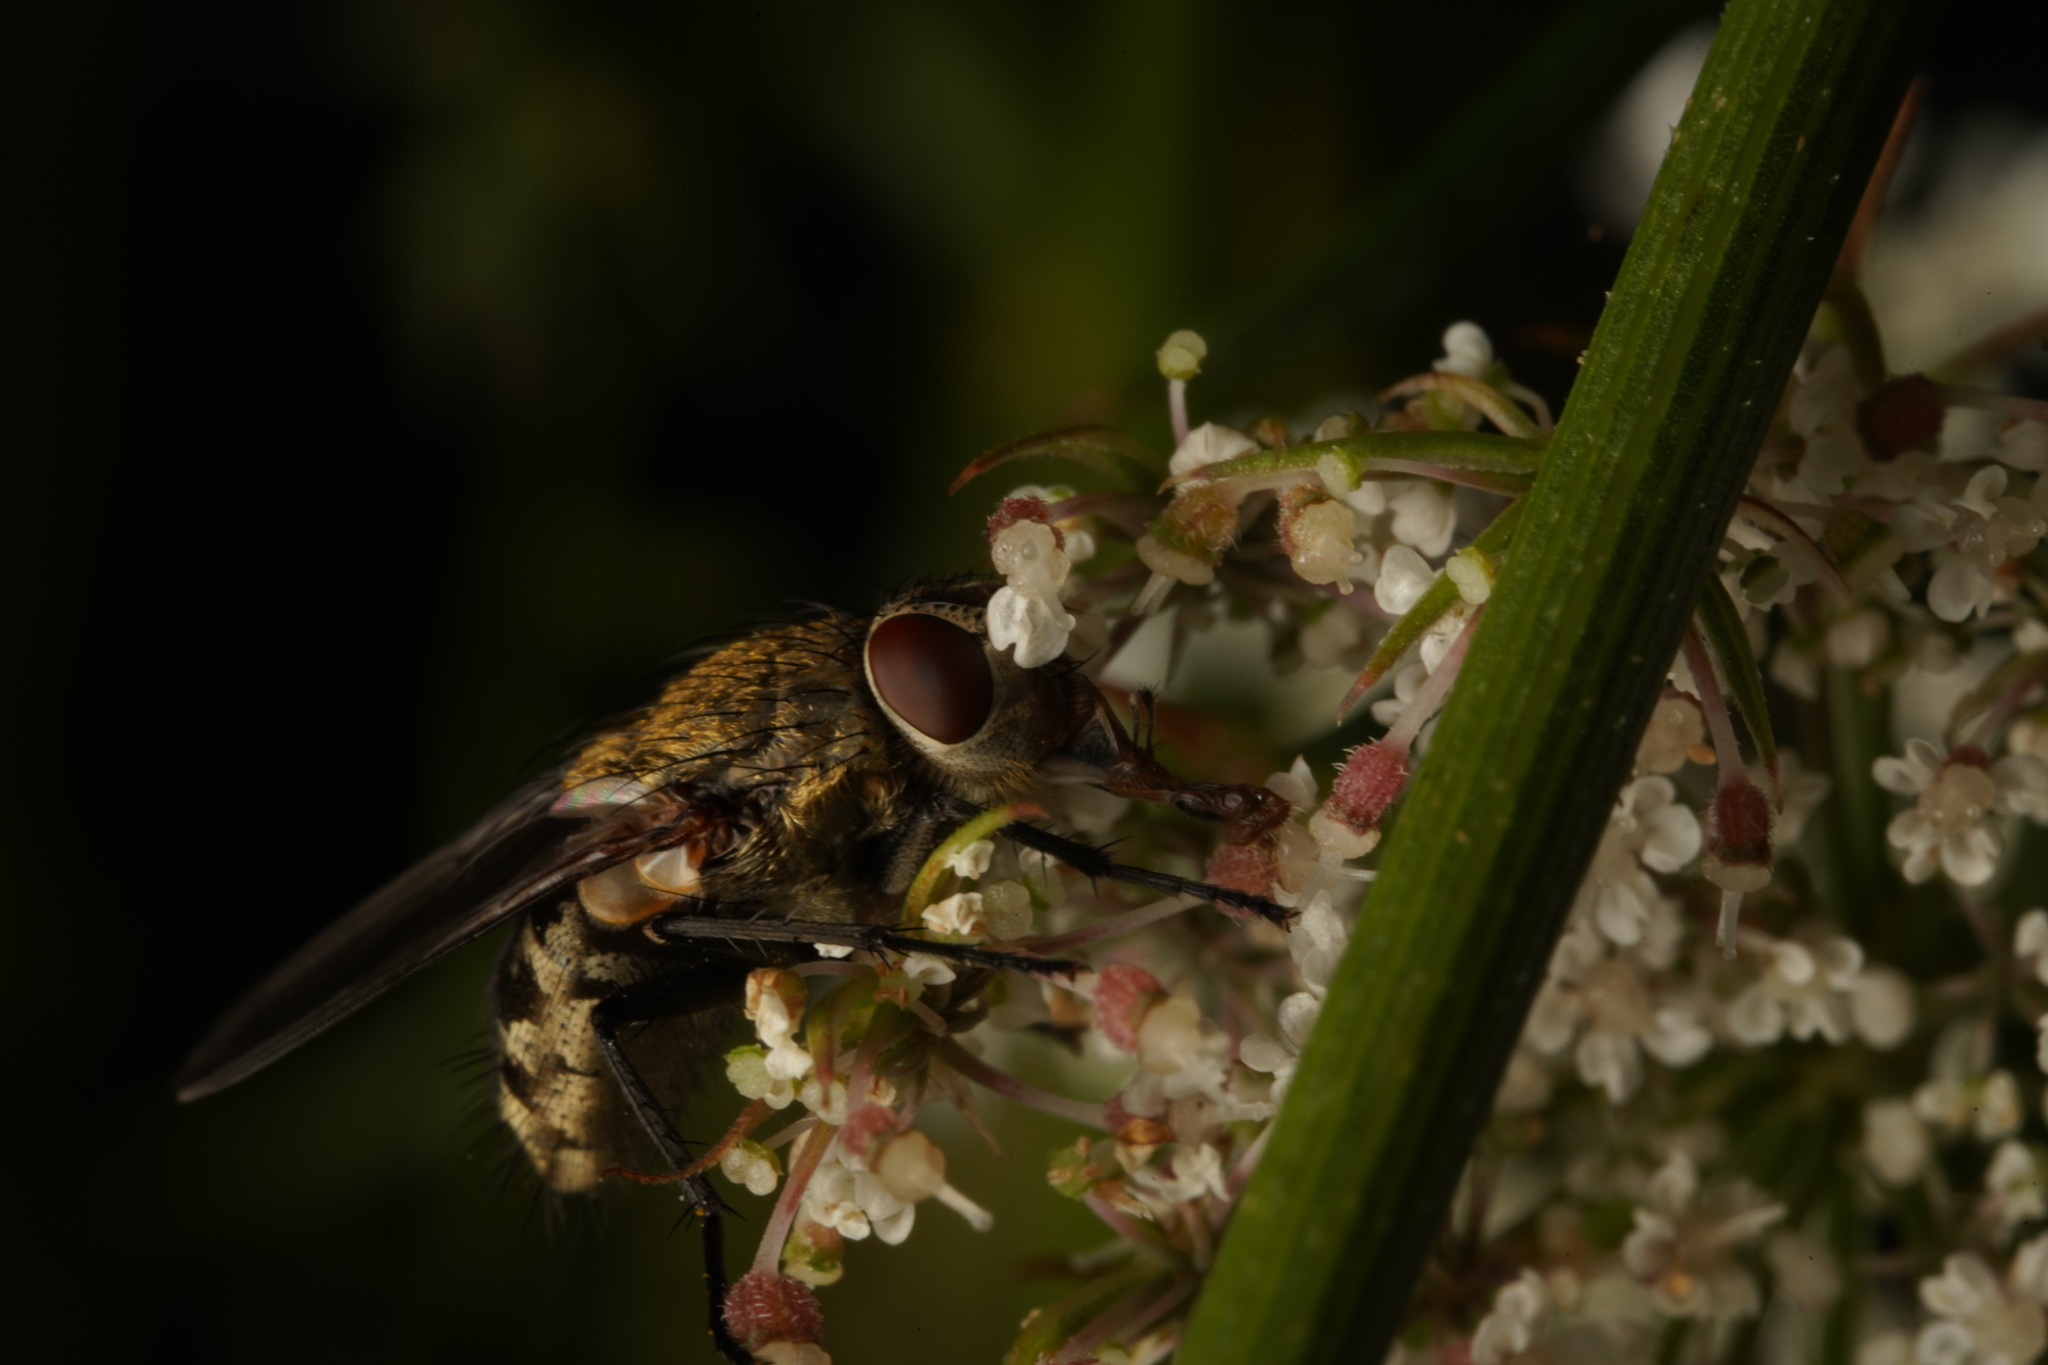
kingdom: Animalia
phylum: Arthropoda
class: Insecta
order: Diptera
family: Polleniidae
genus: Pollenia
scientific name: Pollenia
